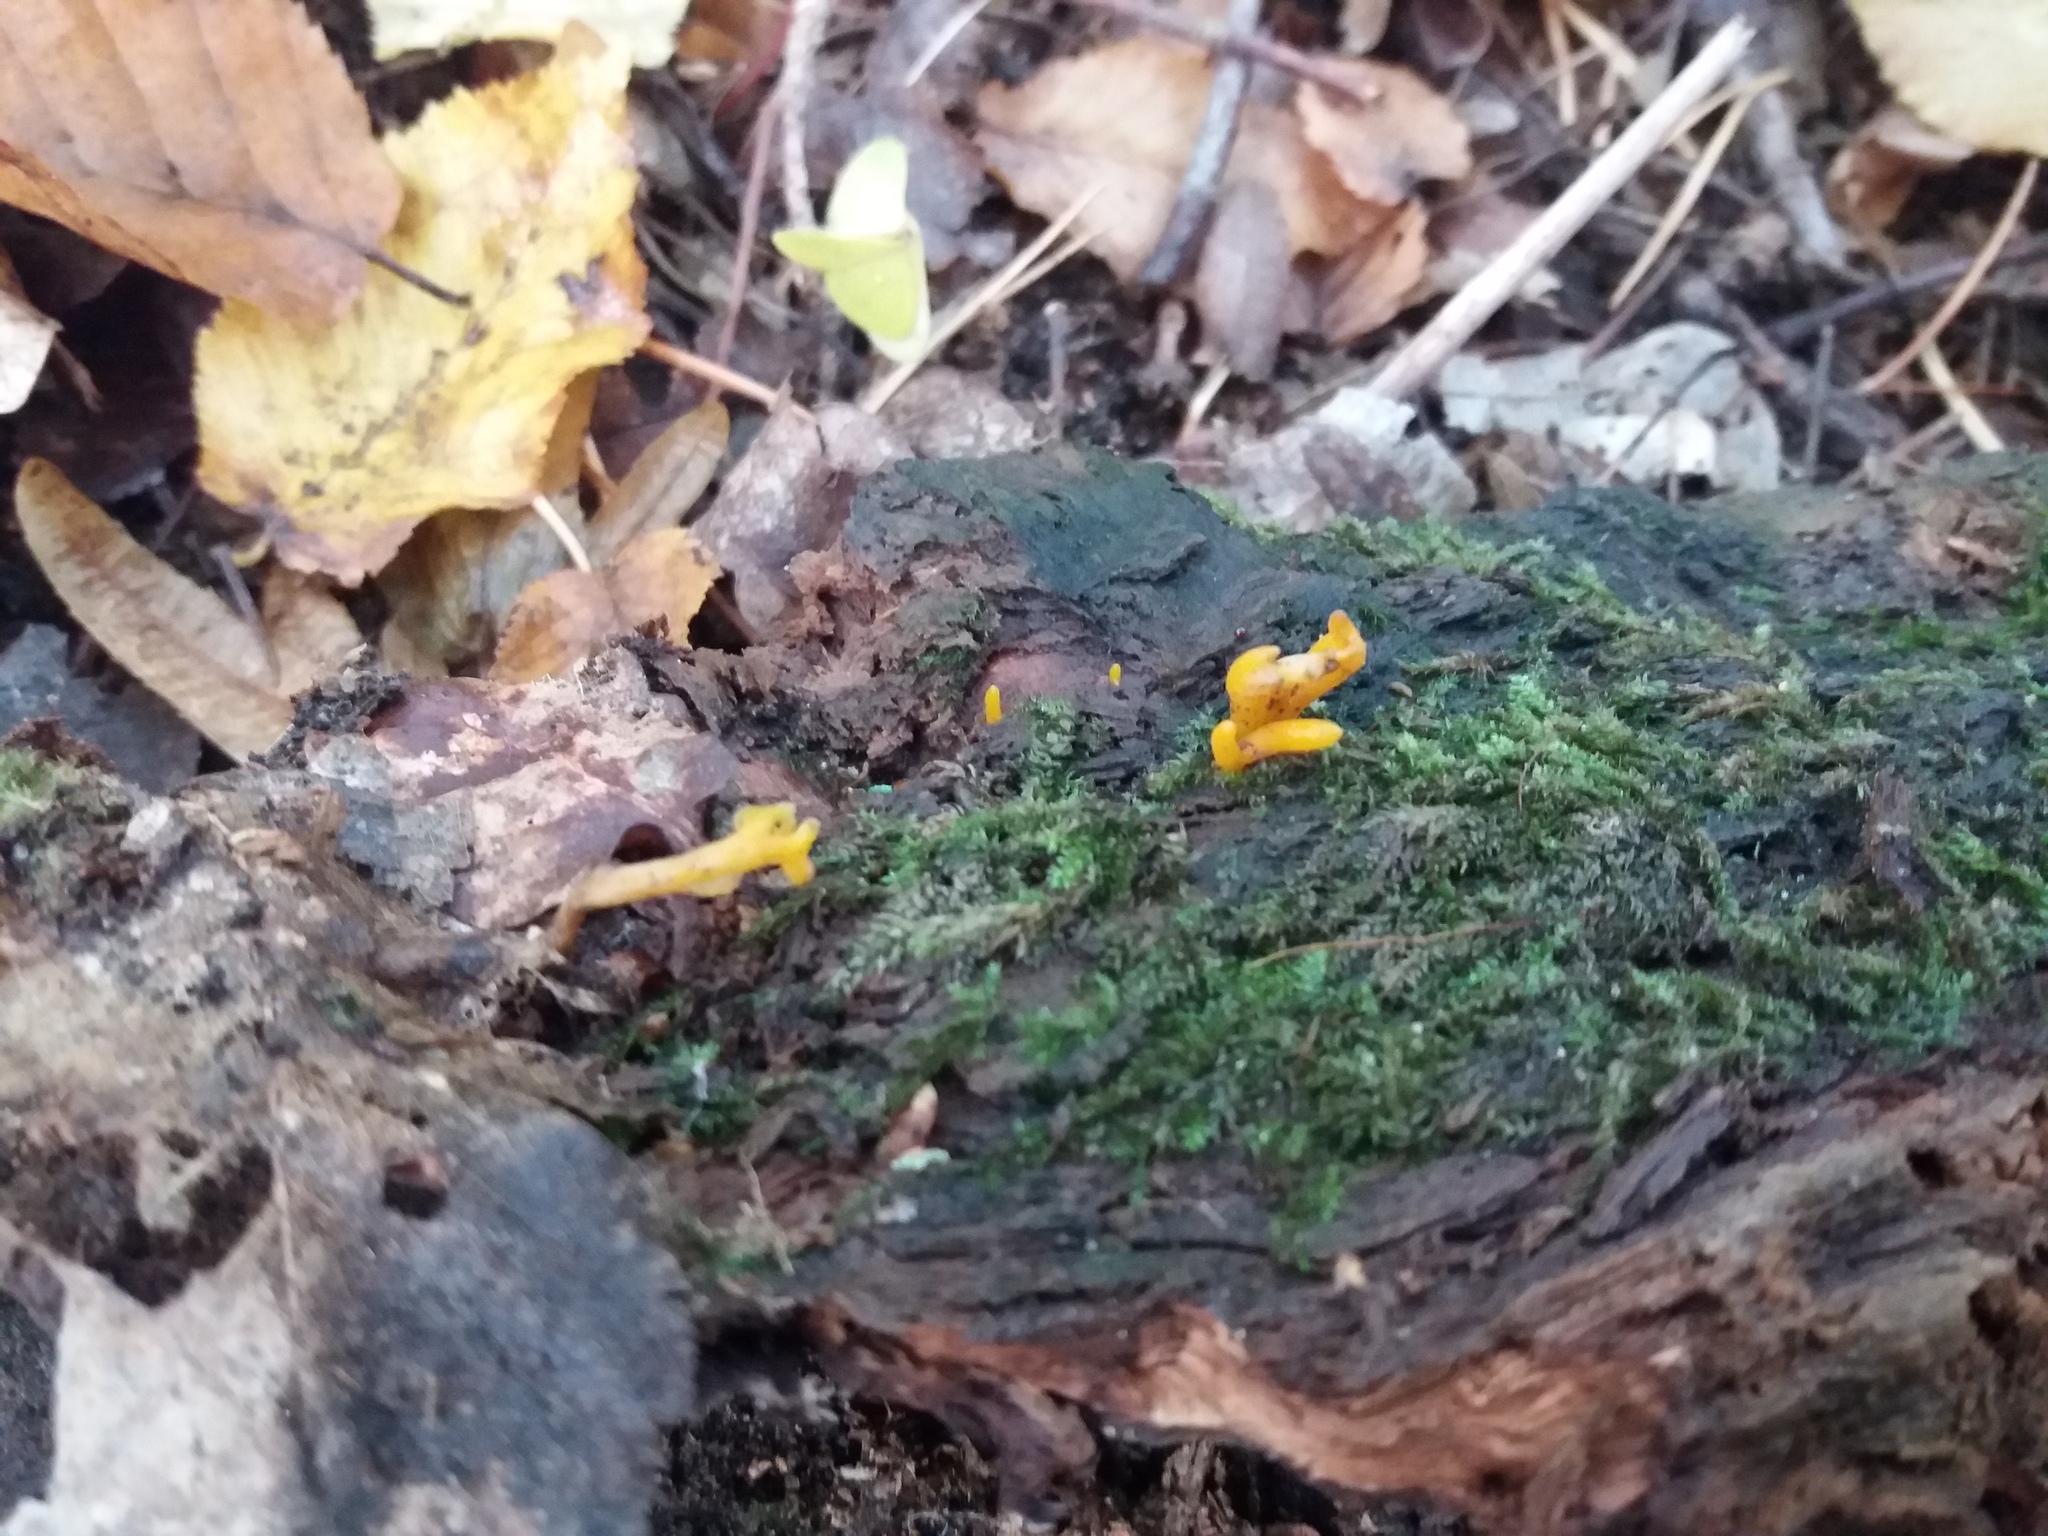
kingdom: Fungi
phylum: Basidiomycota
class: Dacrymycetes
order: Dacrymycetales
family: Dacrymycetaceae
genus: Calocera
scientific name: Calocera cornea
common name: Small stagshorn
